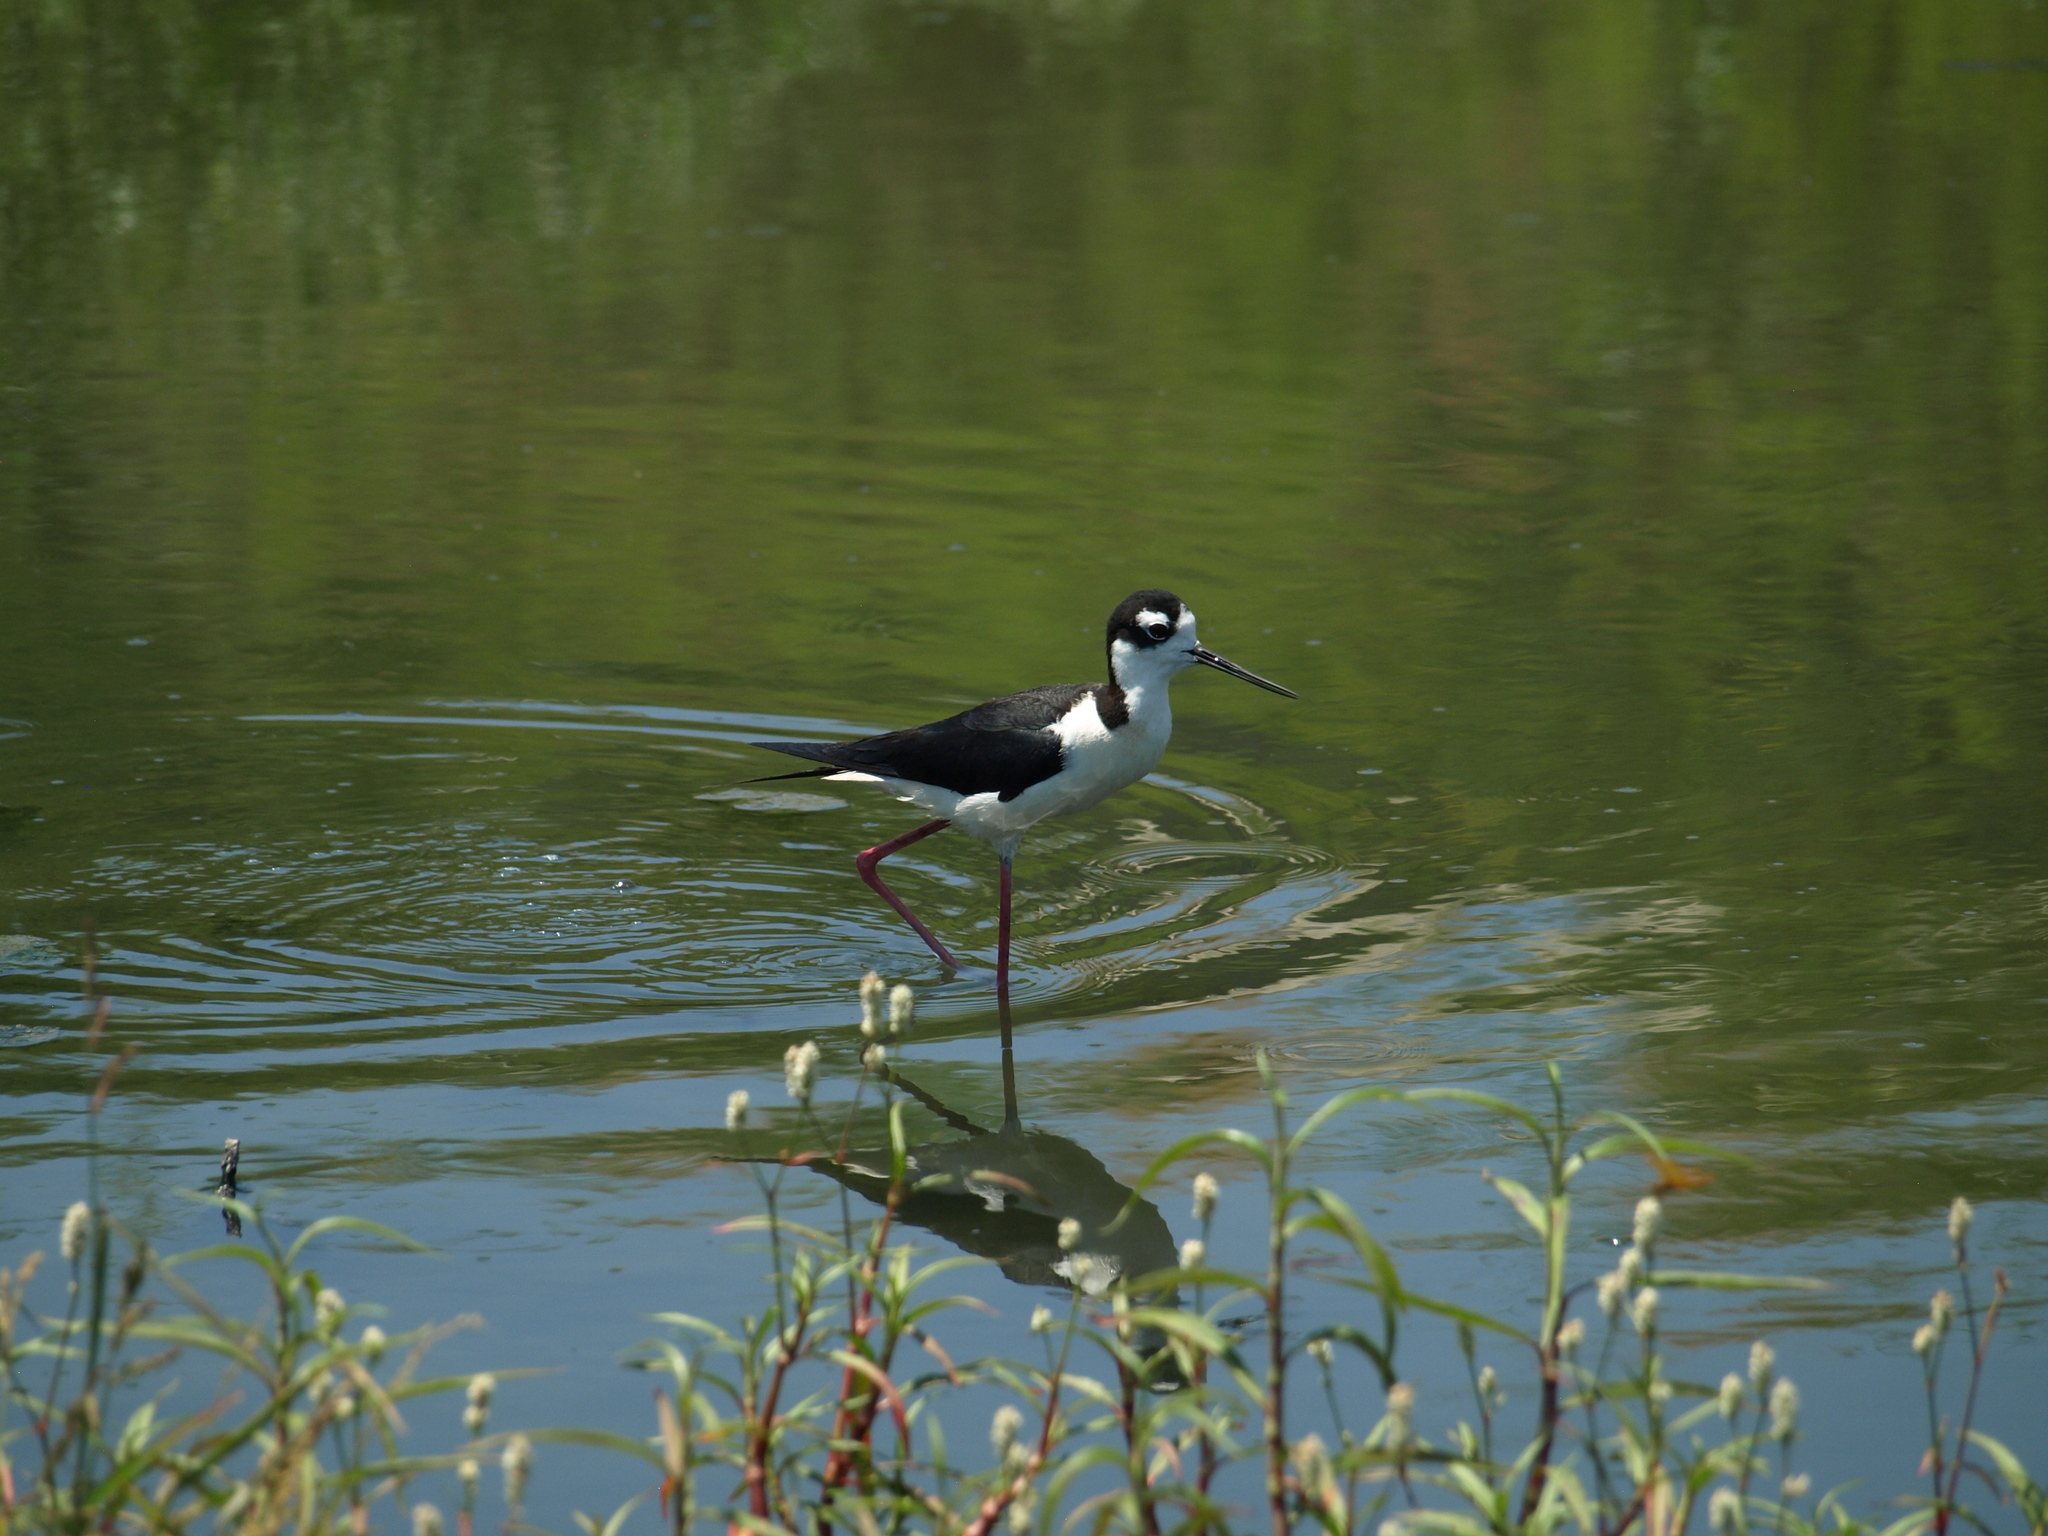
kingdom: Animalia
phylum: Chordata
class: Aves
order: Charadriiformes
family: Recurvirostridae
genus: Himantopus
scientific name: Himantopus mexicanus
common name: Black-necked stilt
